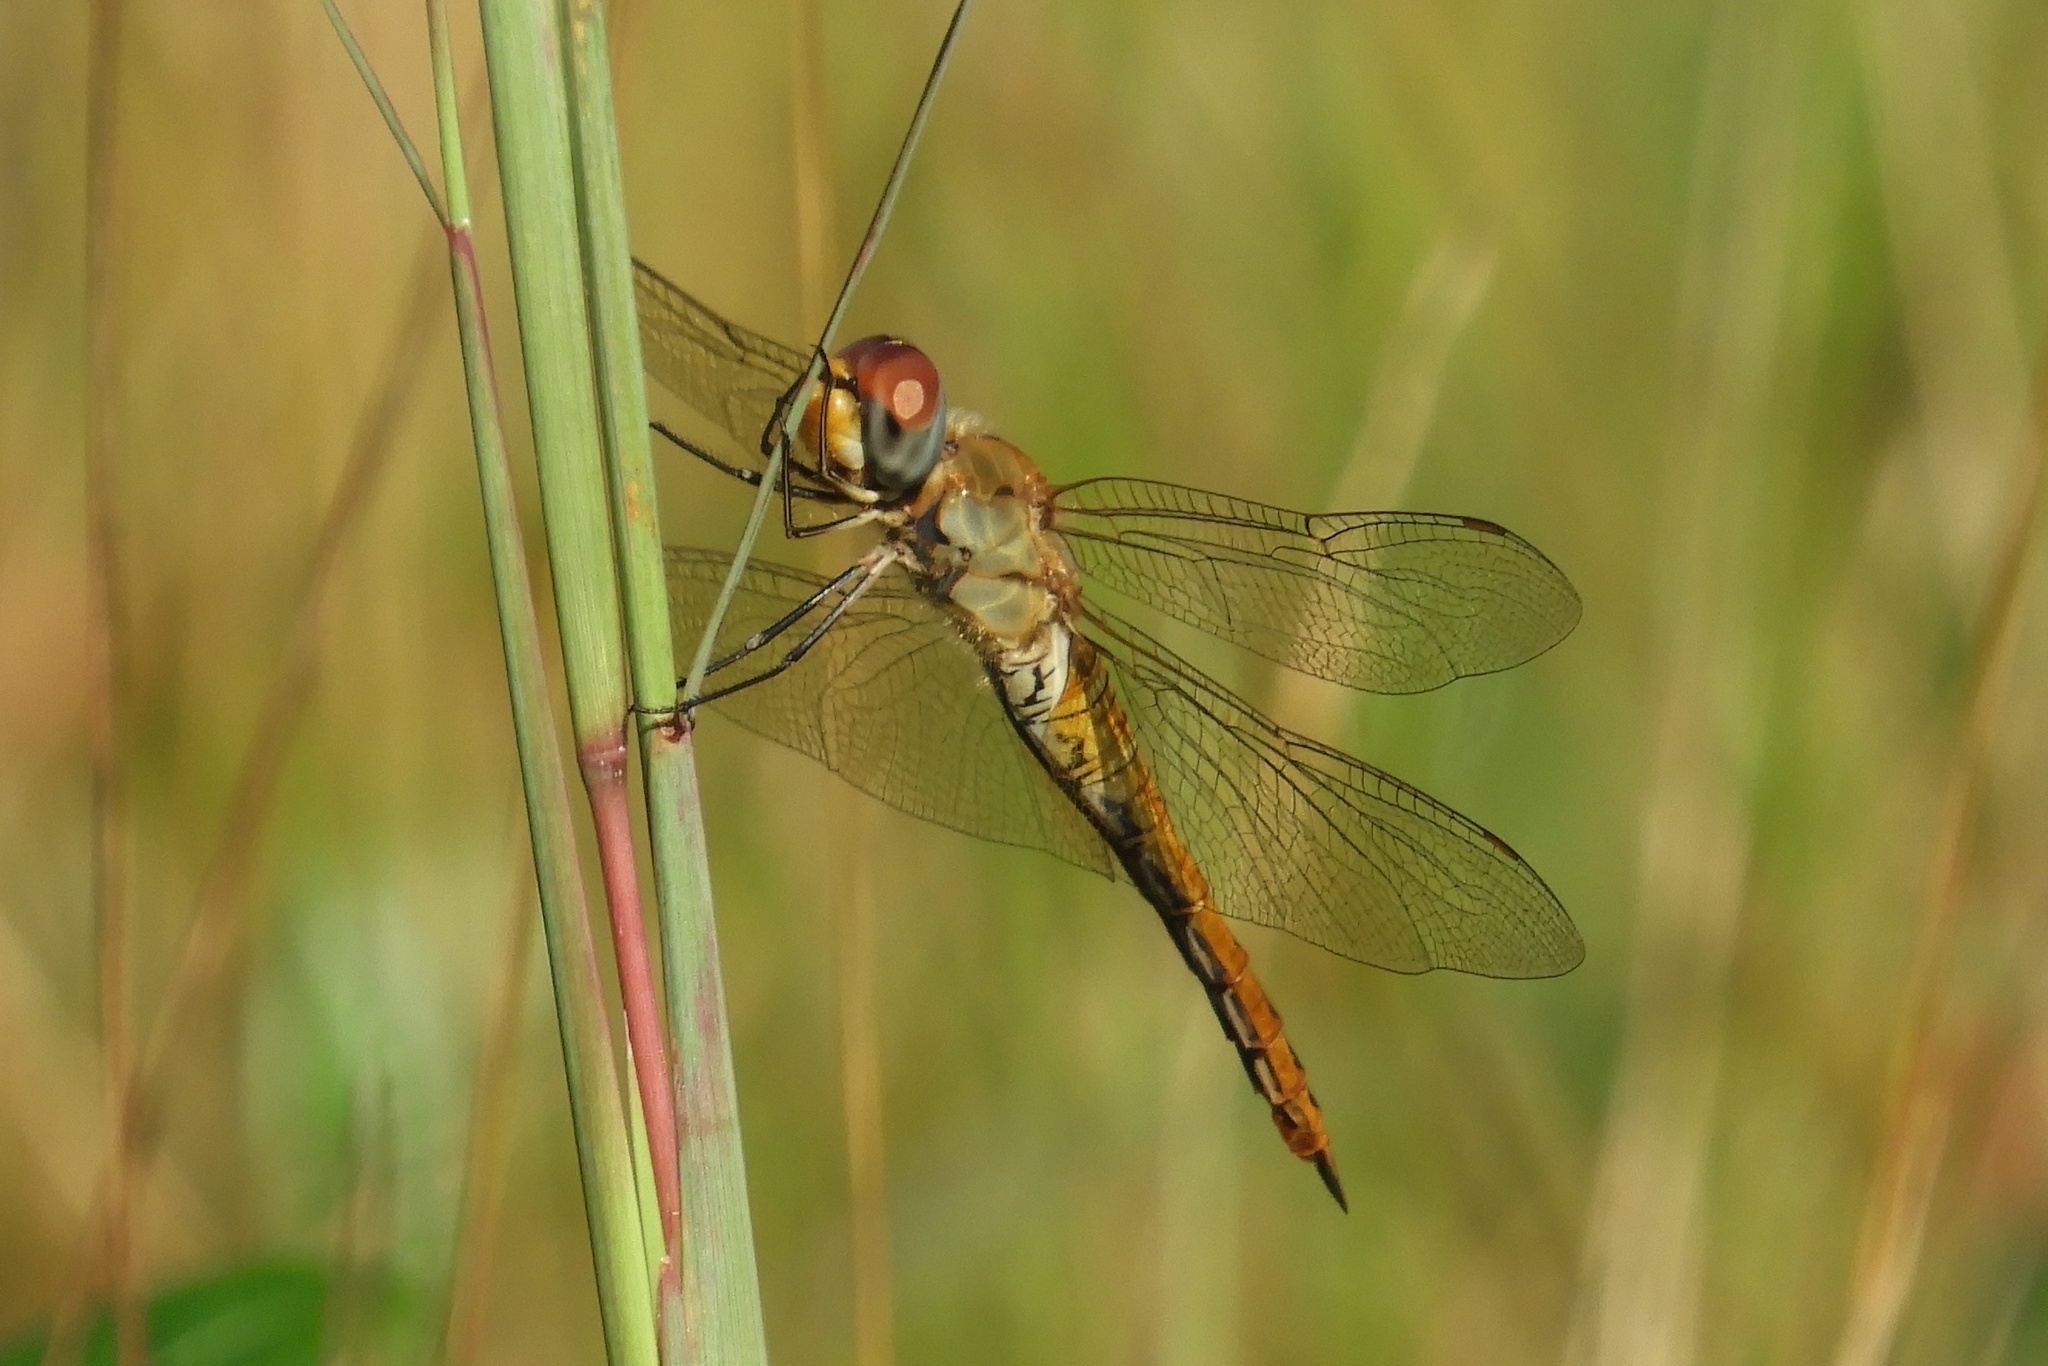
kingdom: Animalia
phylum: Arthropoda
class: Insecta
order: Odonata
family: Libellulidae
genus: Pantala
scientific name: Pantala flavescens
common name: Wandering glider
